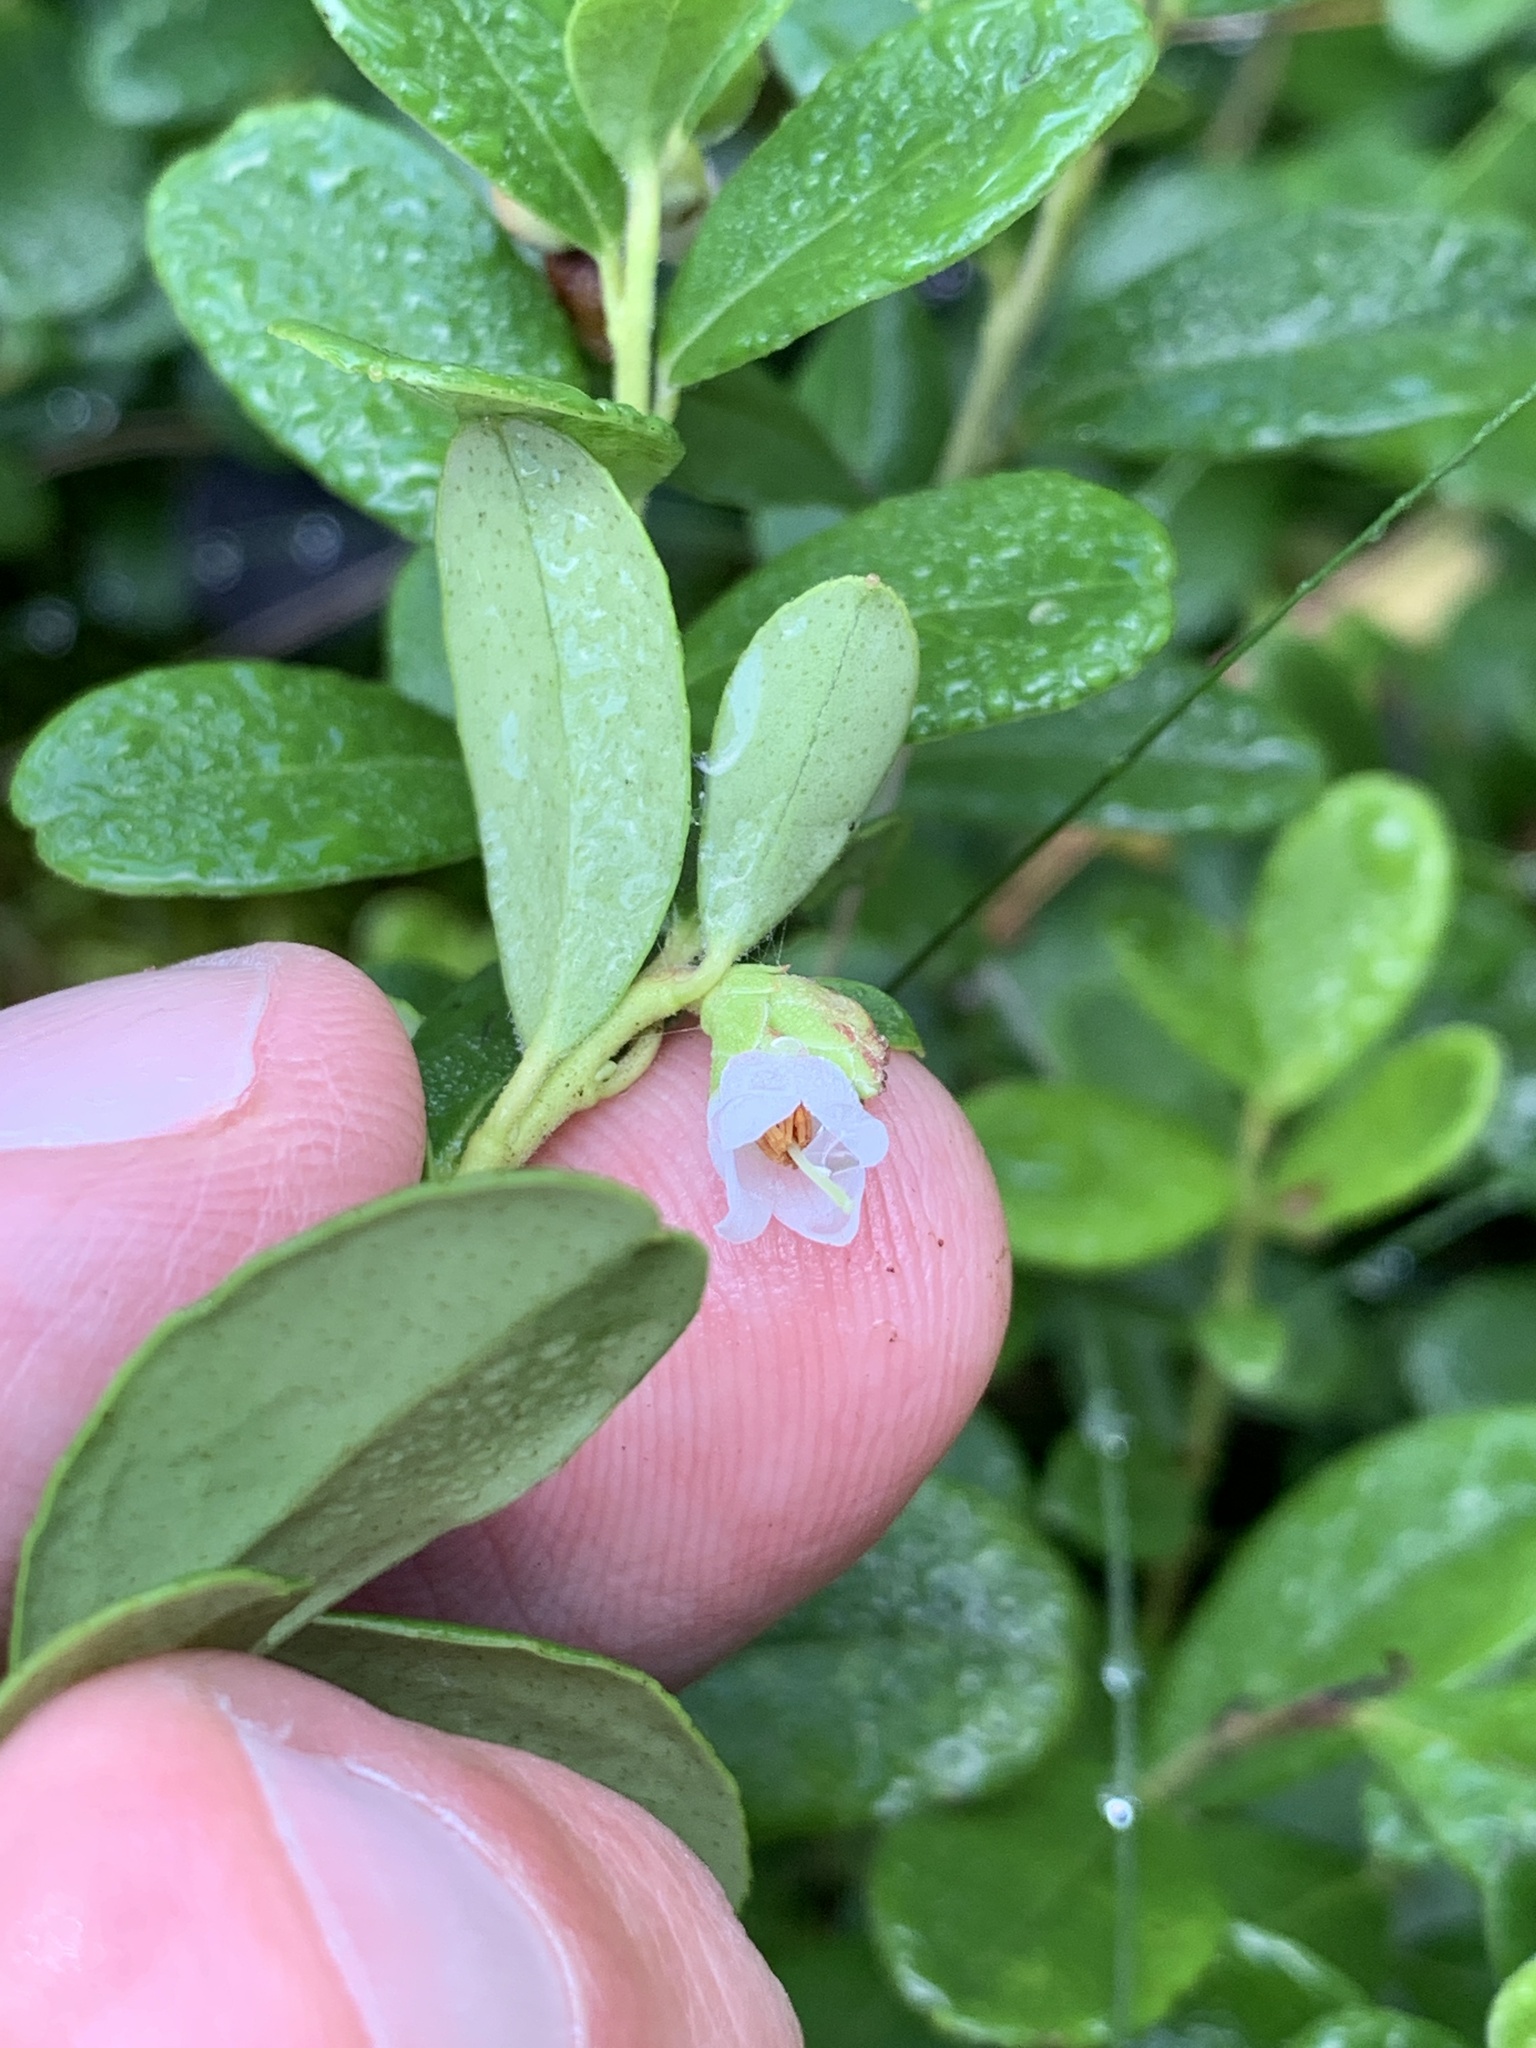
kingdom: Plantae
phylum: Tracheophyta
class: Magnoliopsida
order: Ericales
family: Ericaceae
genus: Vaccinium
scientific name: Vaccinium vitis-idaea
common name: Cowberry
